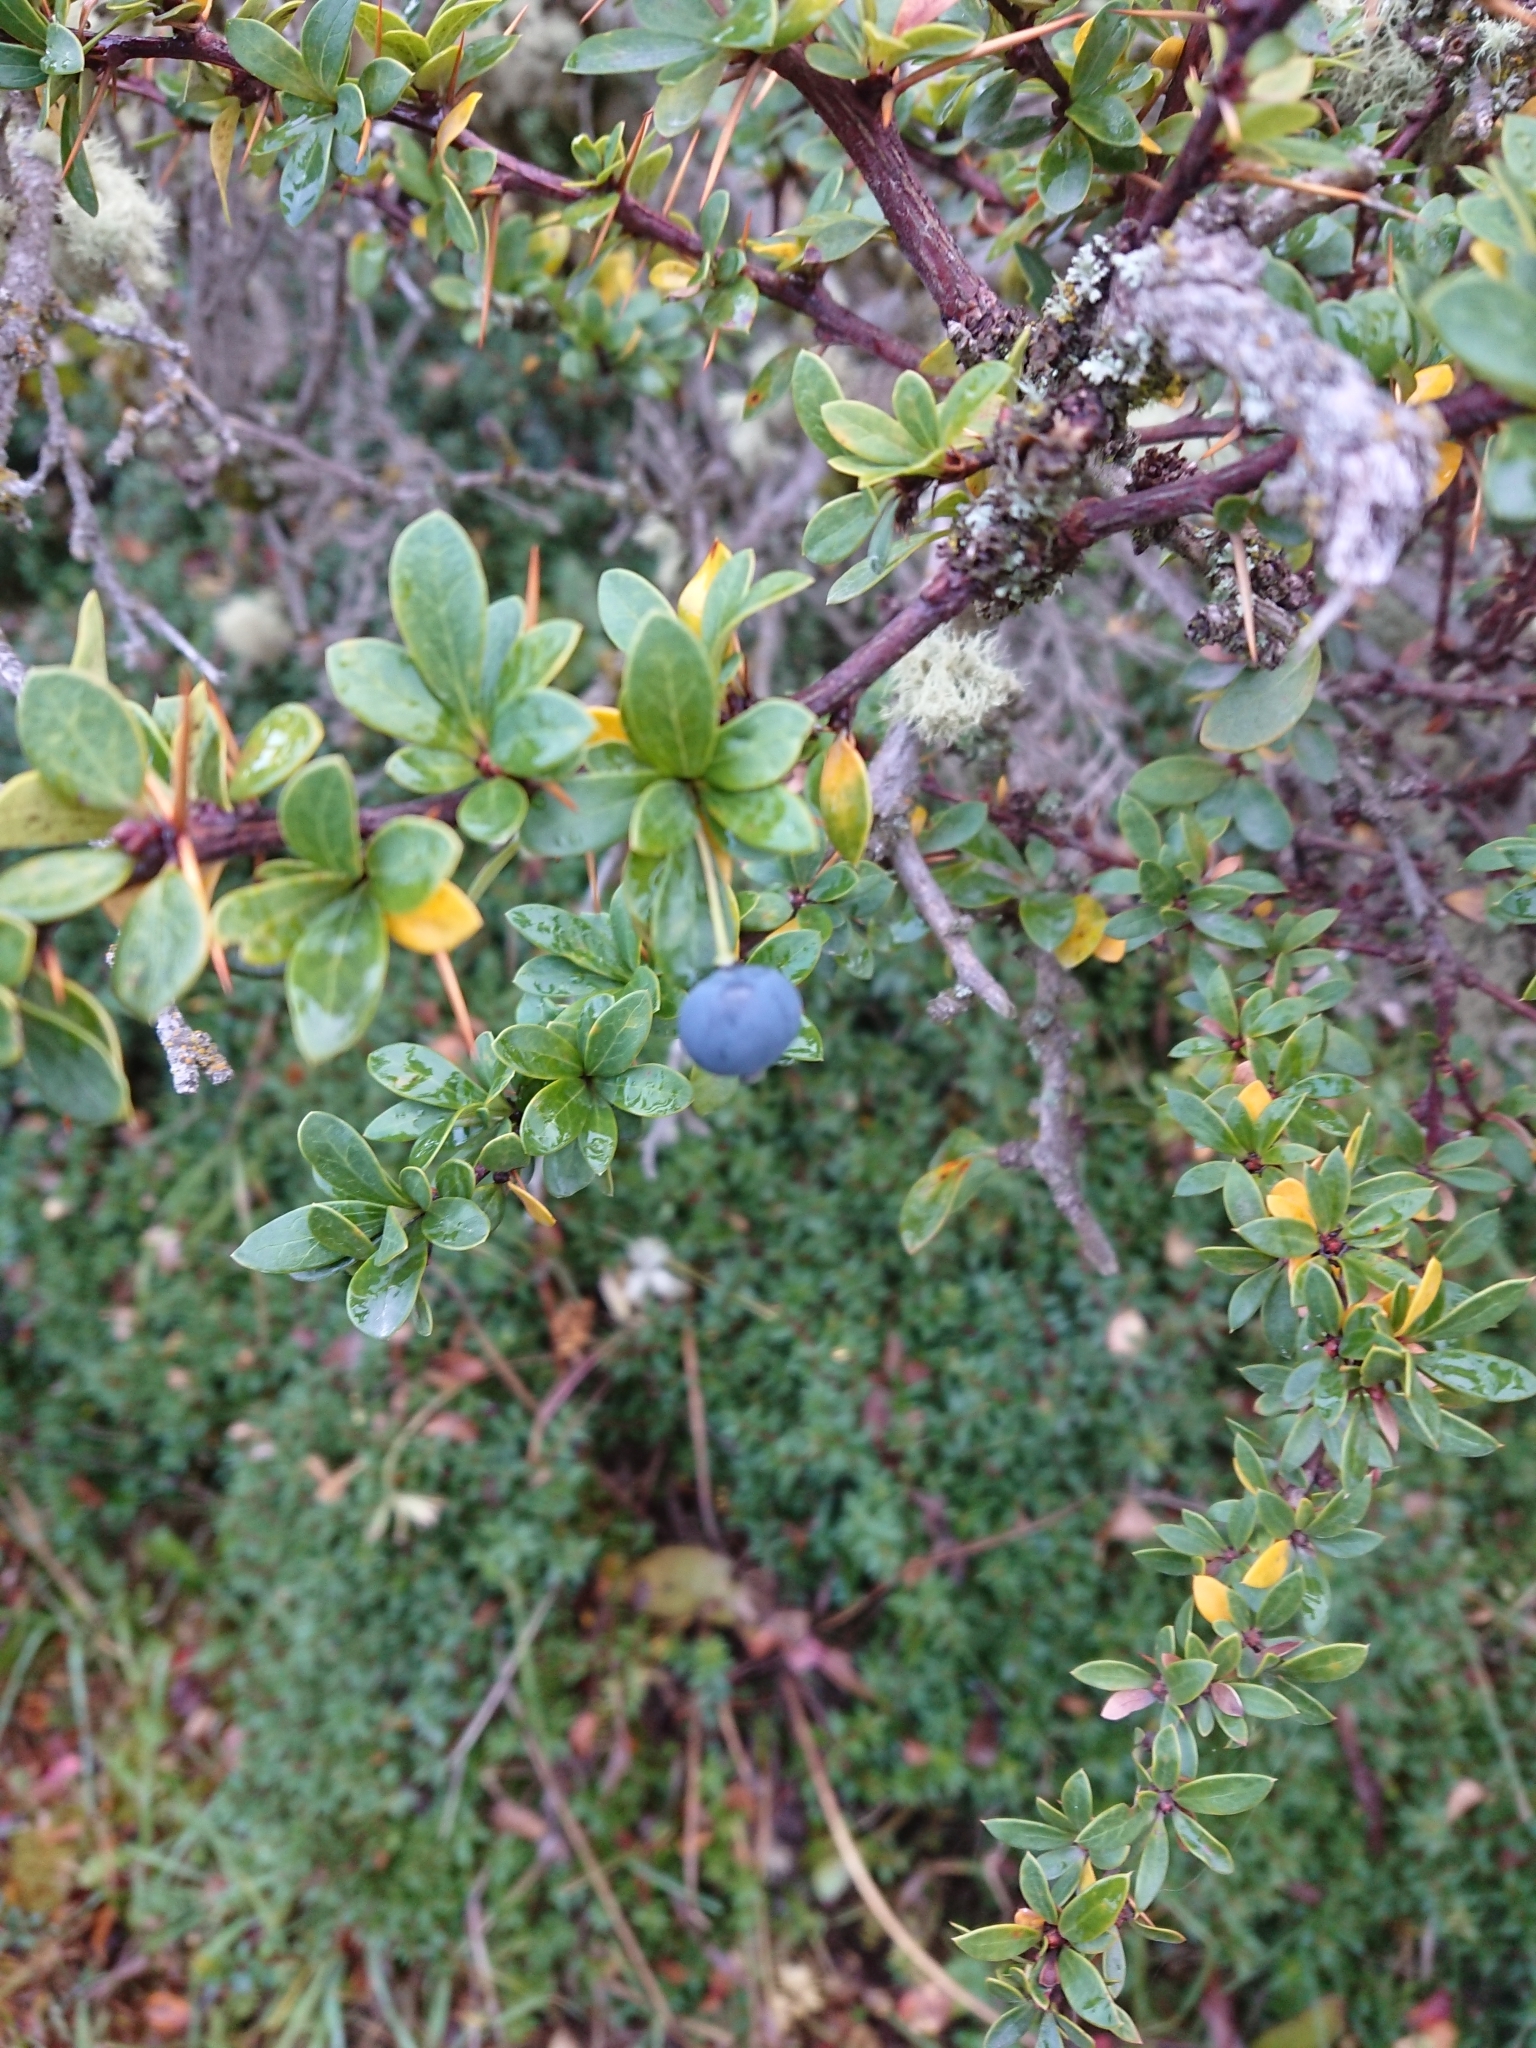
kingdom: Plantae
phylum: Tracheophyta
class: Magnoliopsida
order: Ranunculales
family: Berberidaceae
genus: Berberis
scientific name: Berberis microphylla
